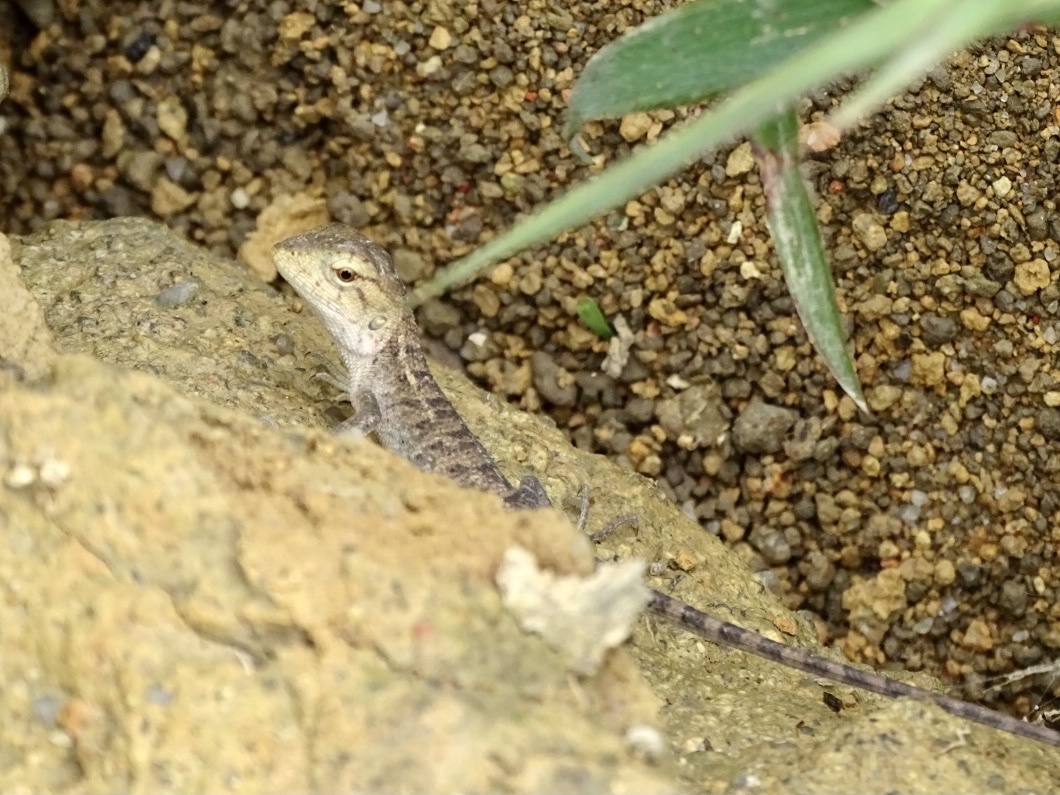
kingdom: Animalia
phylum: Chordata
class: Squamata
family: Agamidae
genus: Calotes
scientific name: Calotes versicolor
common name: Oriental garden lizard
